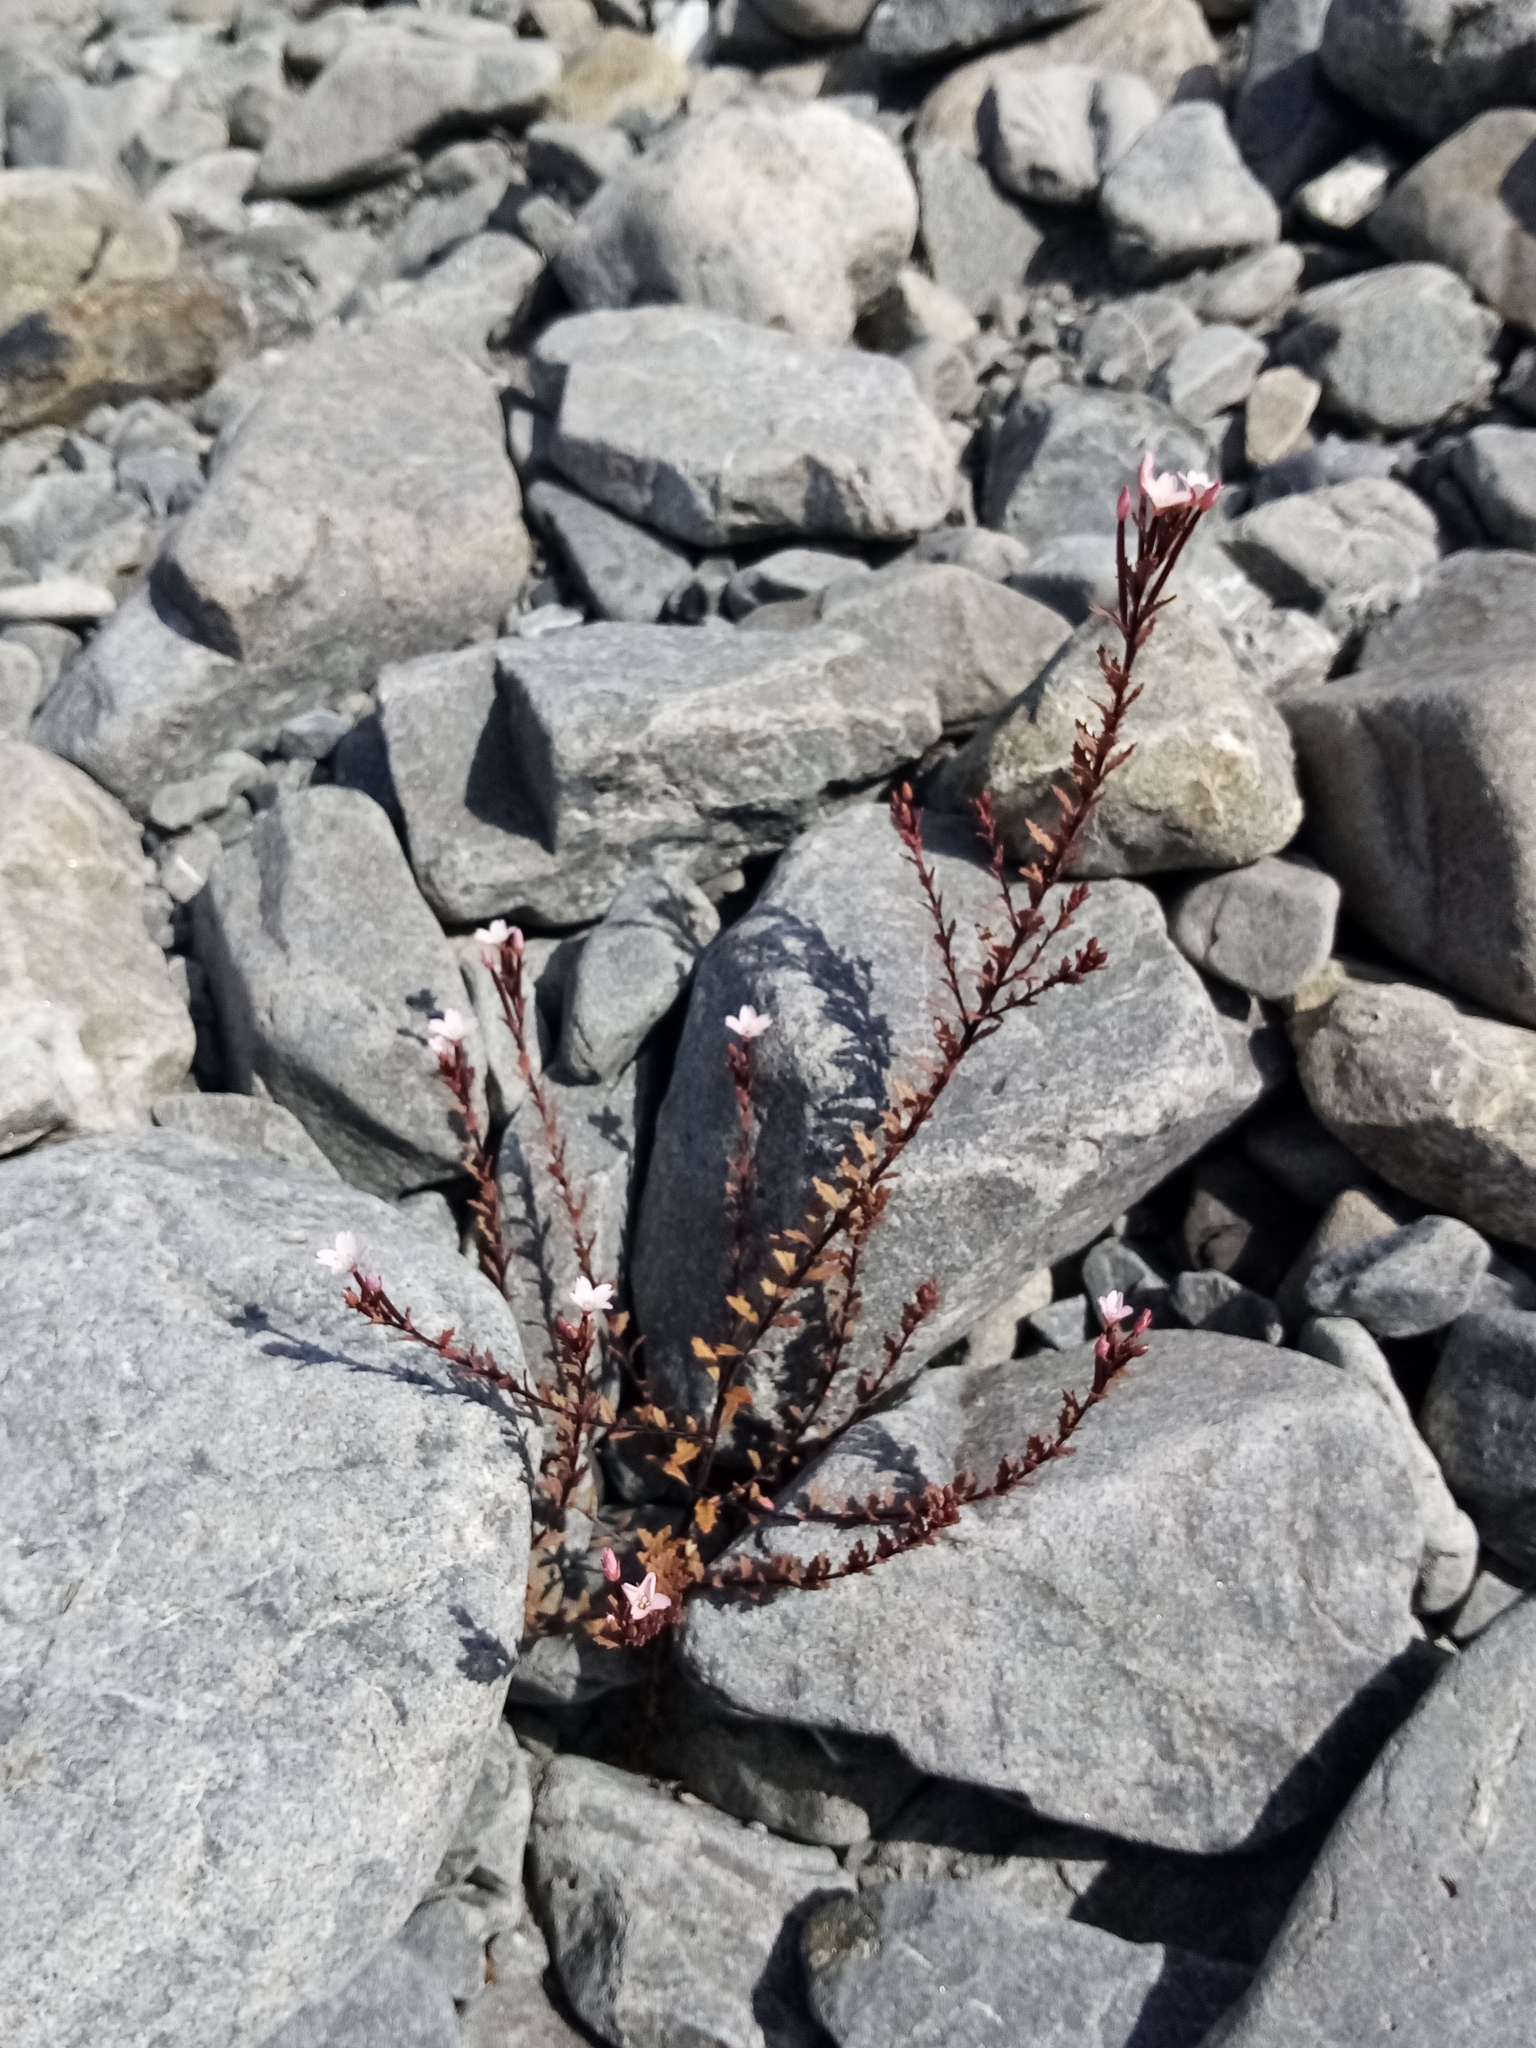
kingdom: Plantae
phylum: Tracheophyta
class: Magnoliopsida
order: Myrtales
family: Onagraceae
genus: Epilobium
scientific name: Epilobium melanocaulon
